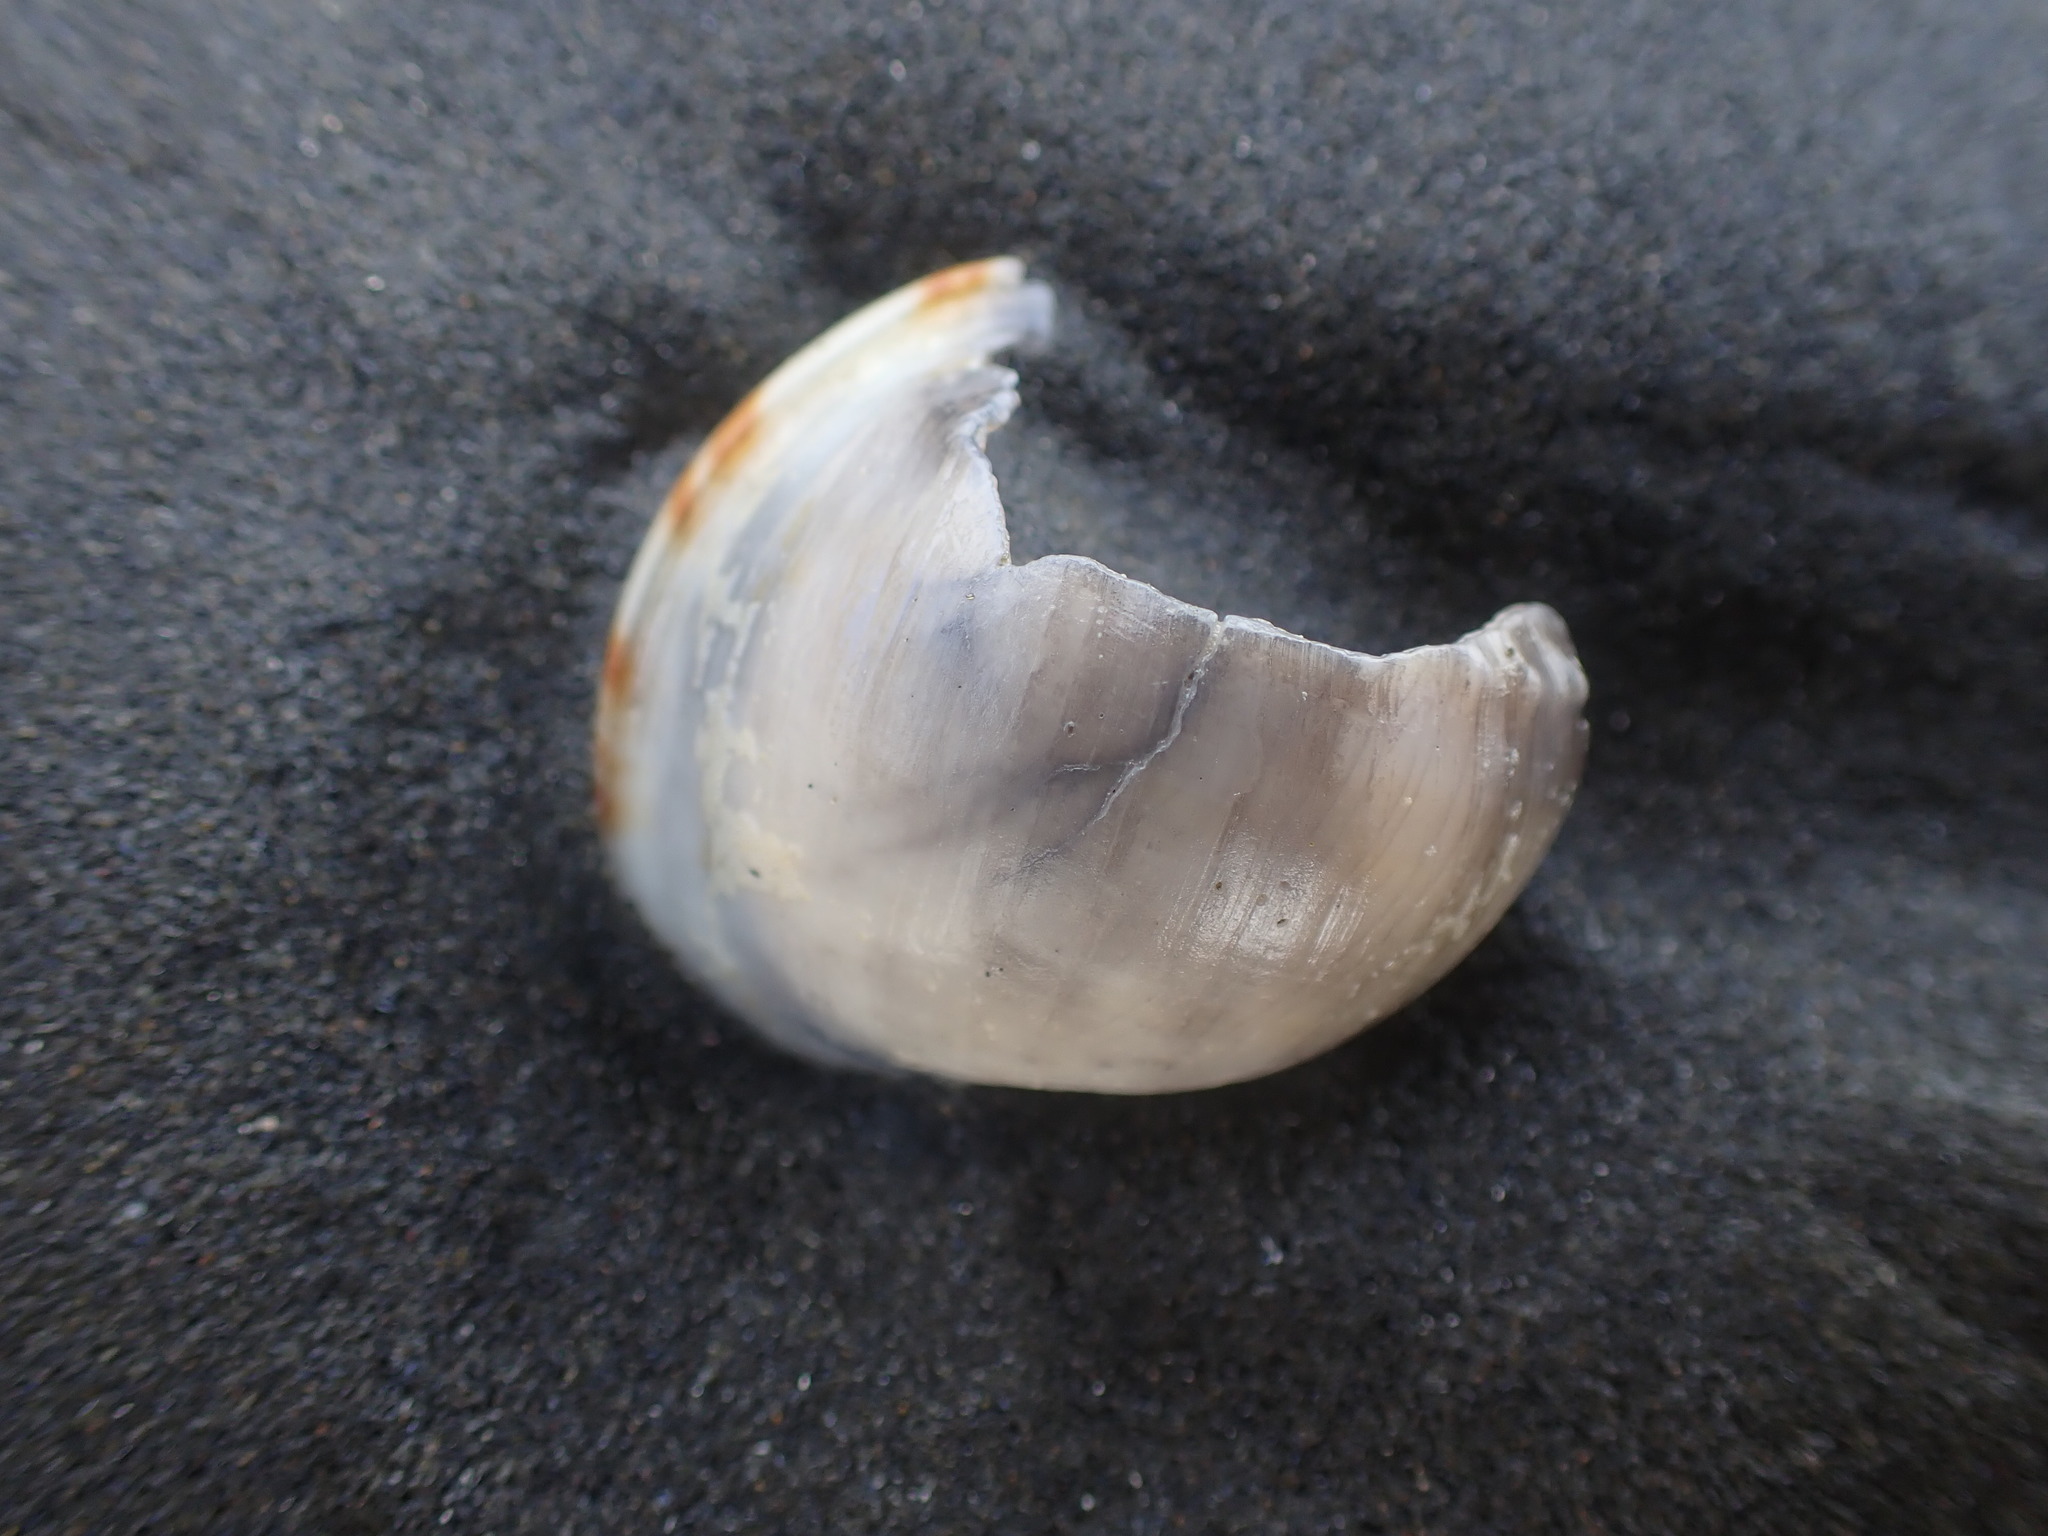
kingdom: Animalia
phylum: Mollusca
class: Gastropoda
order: Littorinimorpha
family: Cassidae
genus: Semicassis
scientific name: Semicassis pyrum
